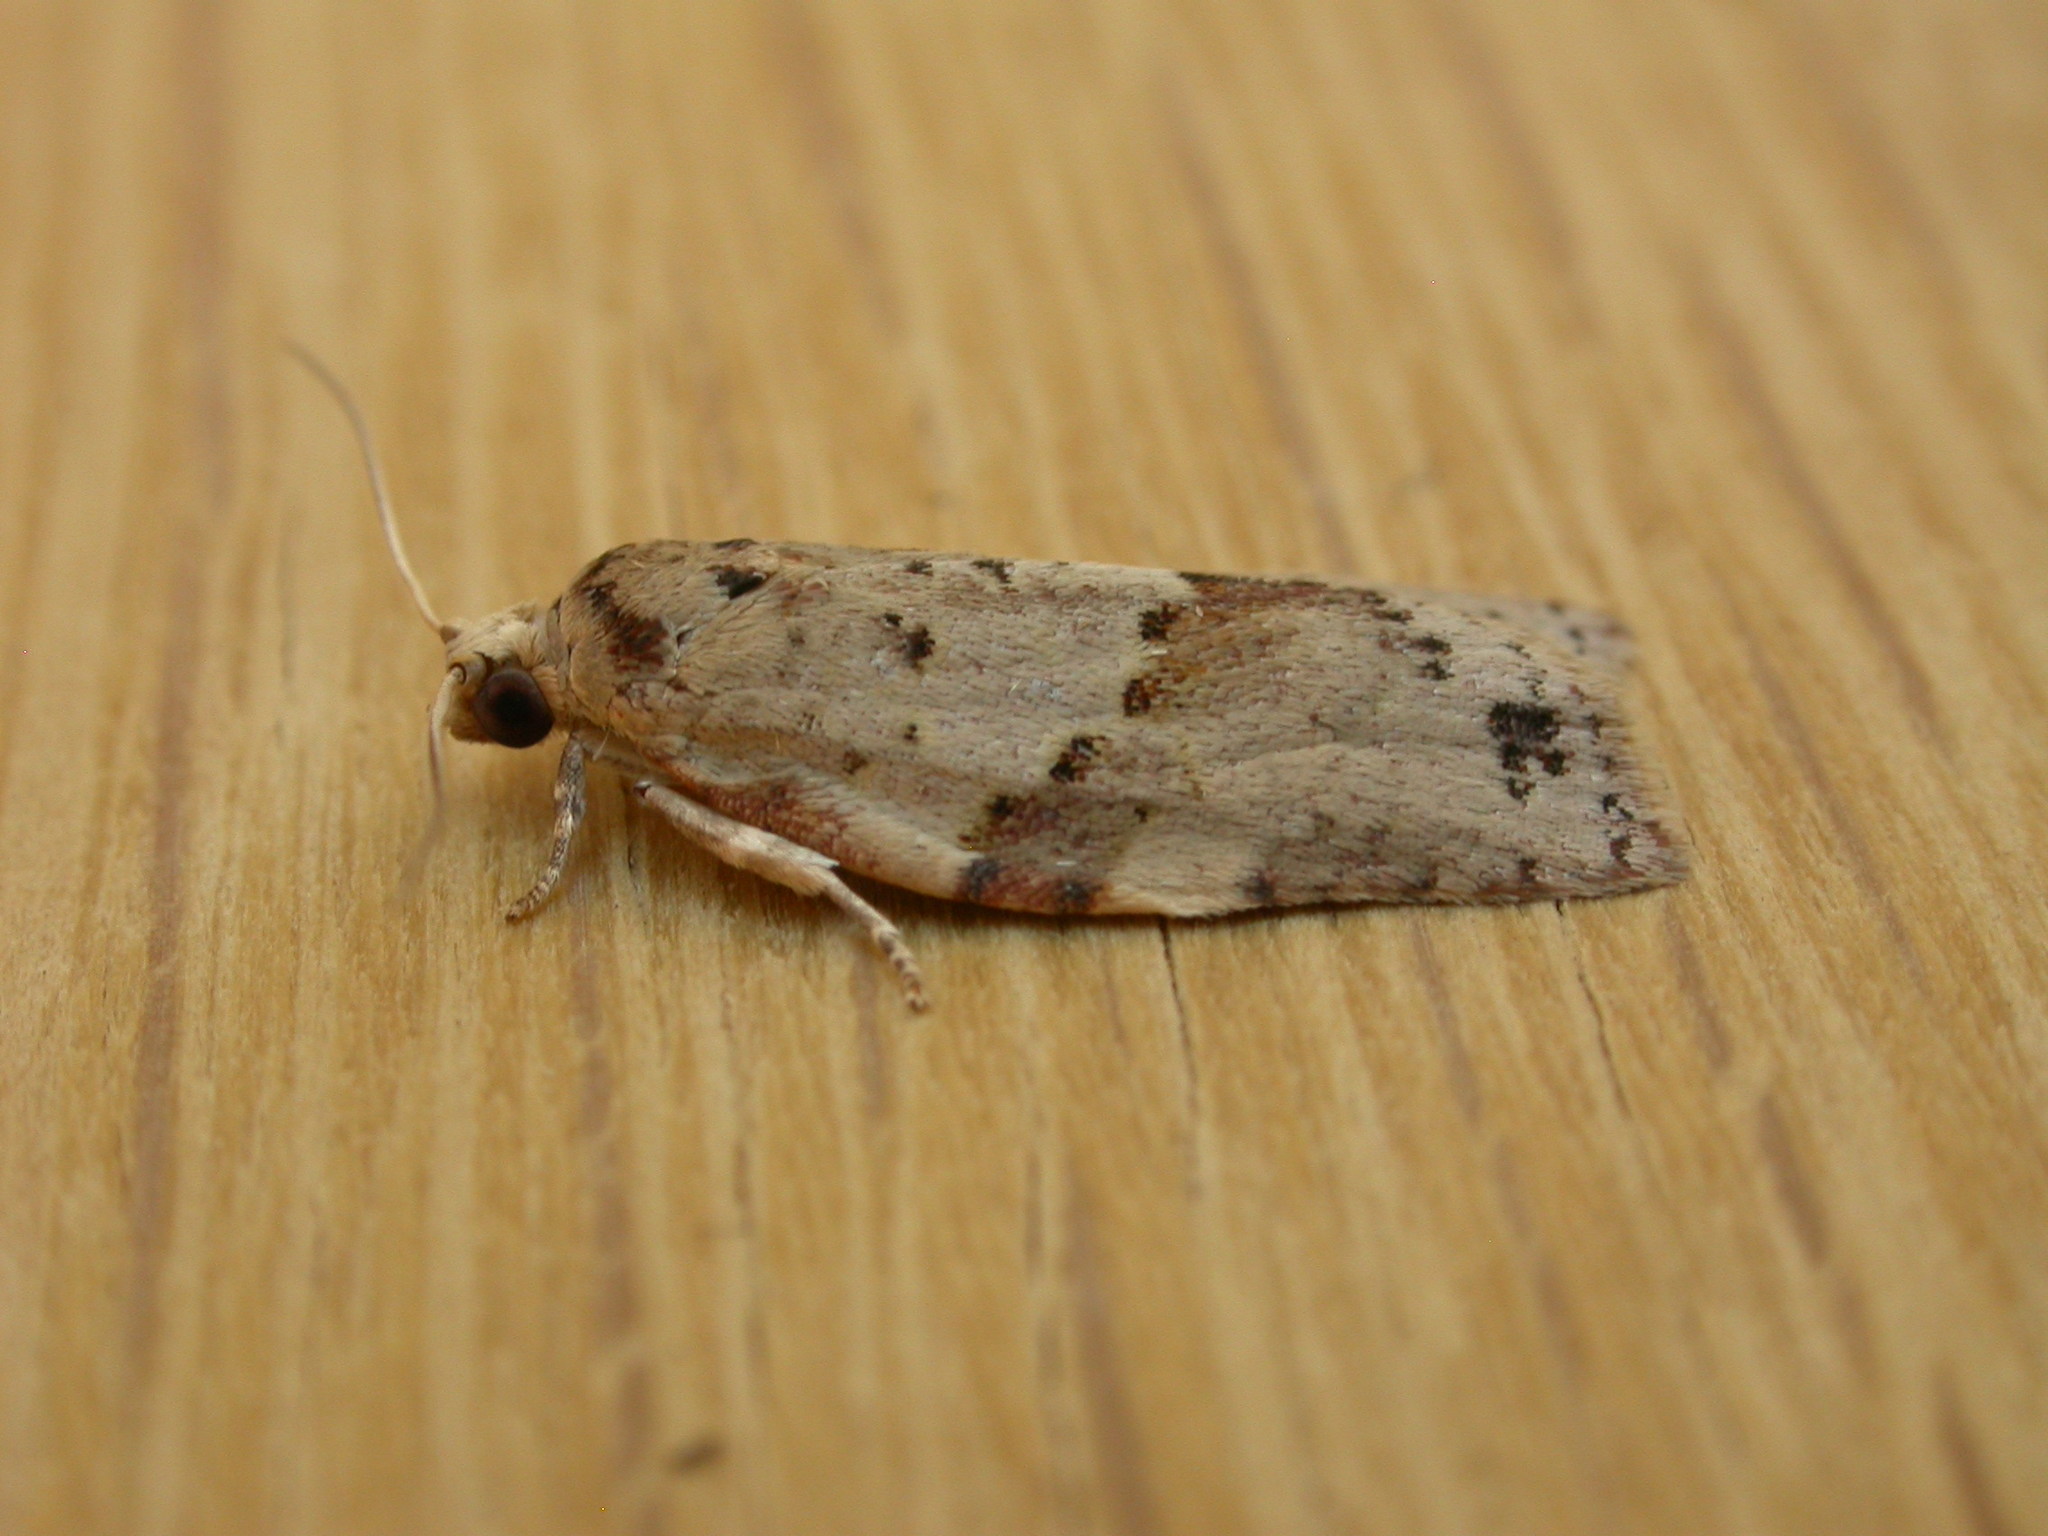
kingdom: Animalia
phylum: Arthropoda
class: Insecta
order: Lepidoptera
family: Tortricidae
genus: Epiphyas
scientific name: Epiphyas ashworthana
